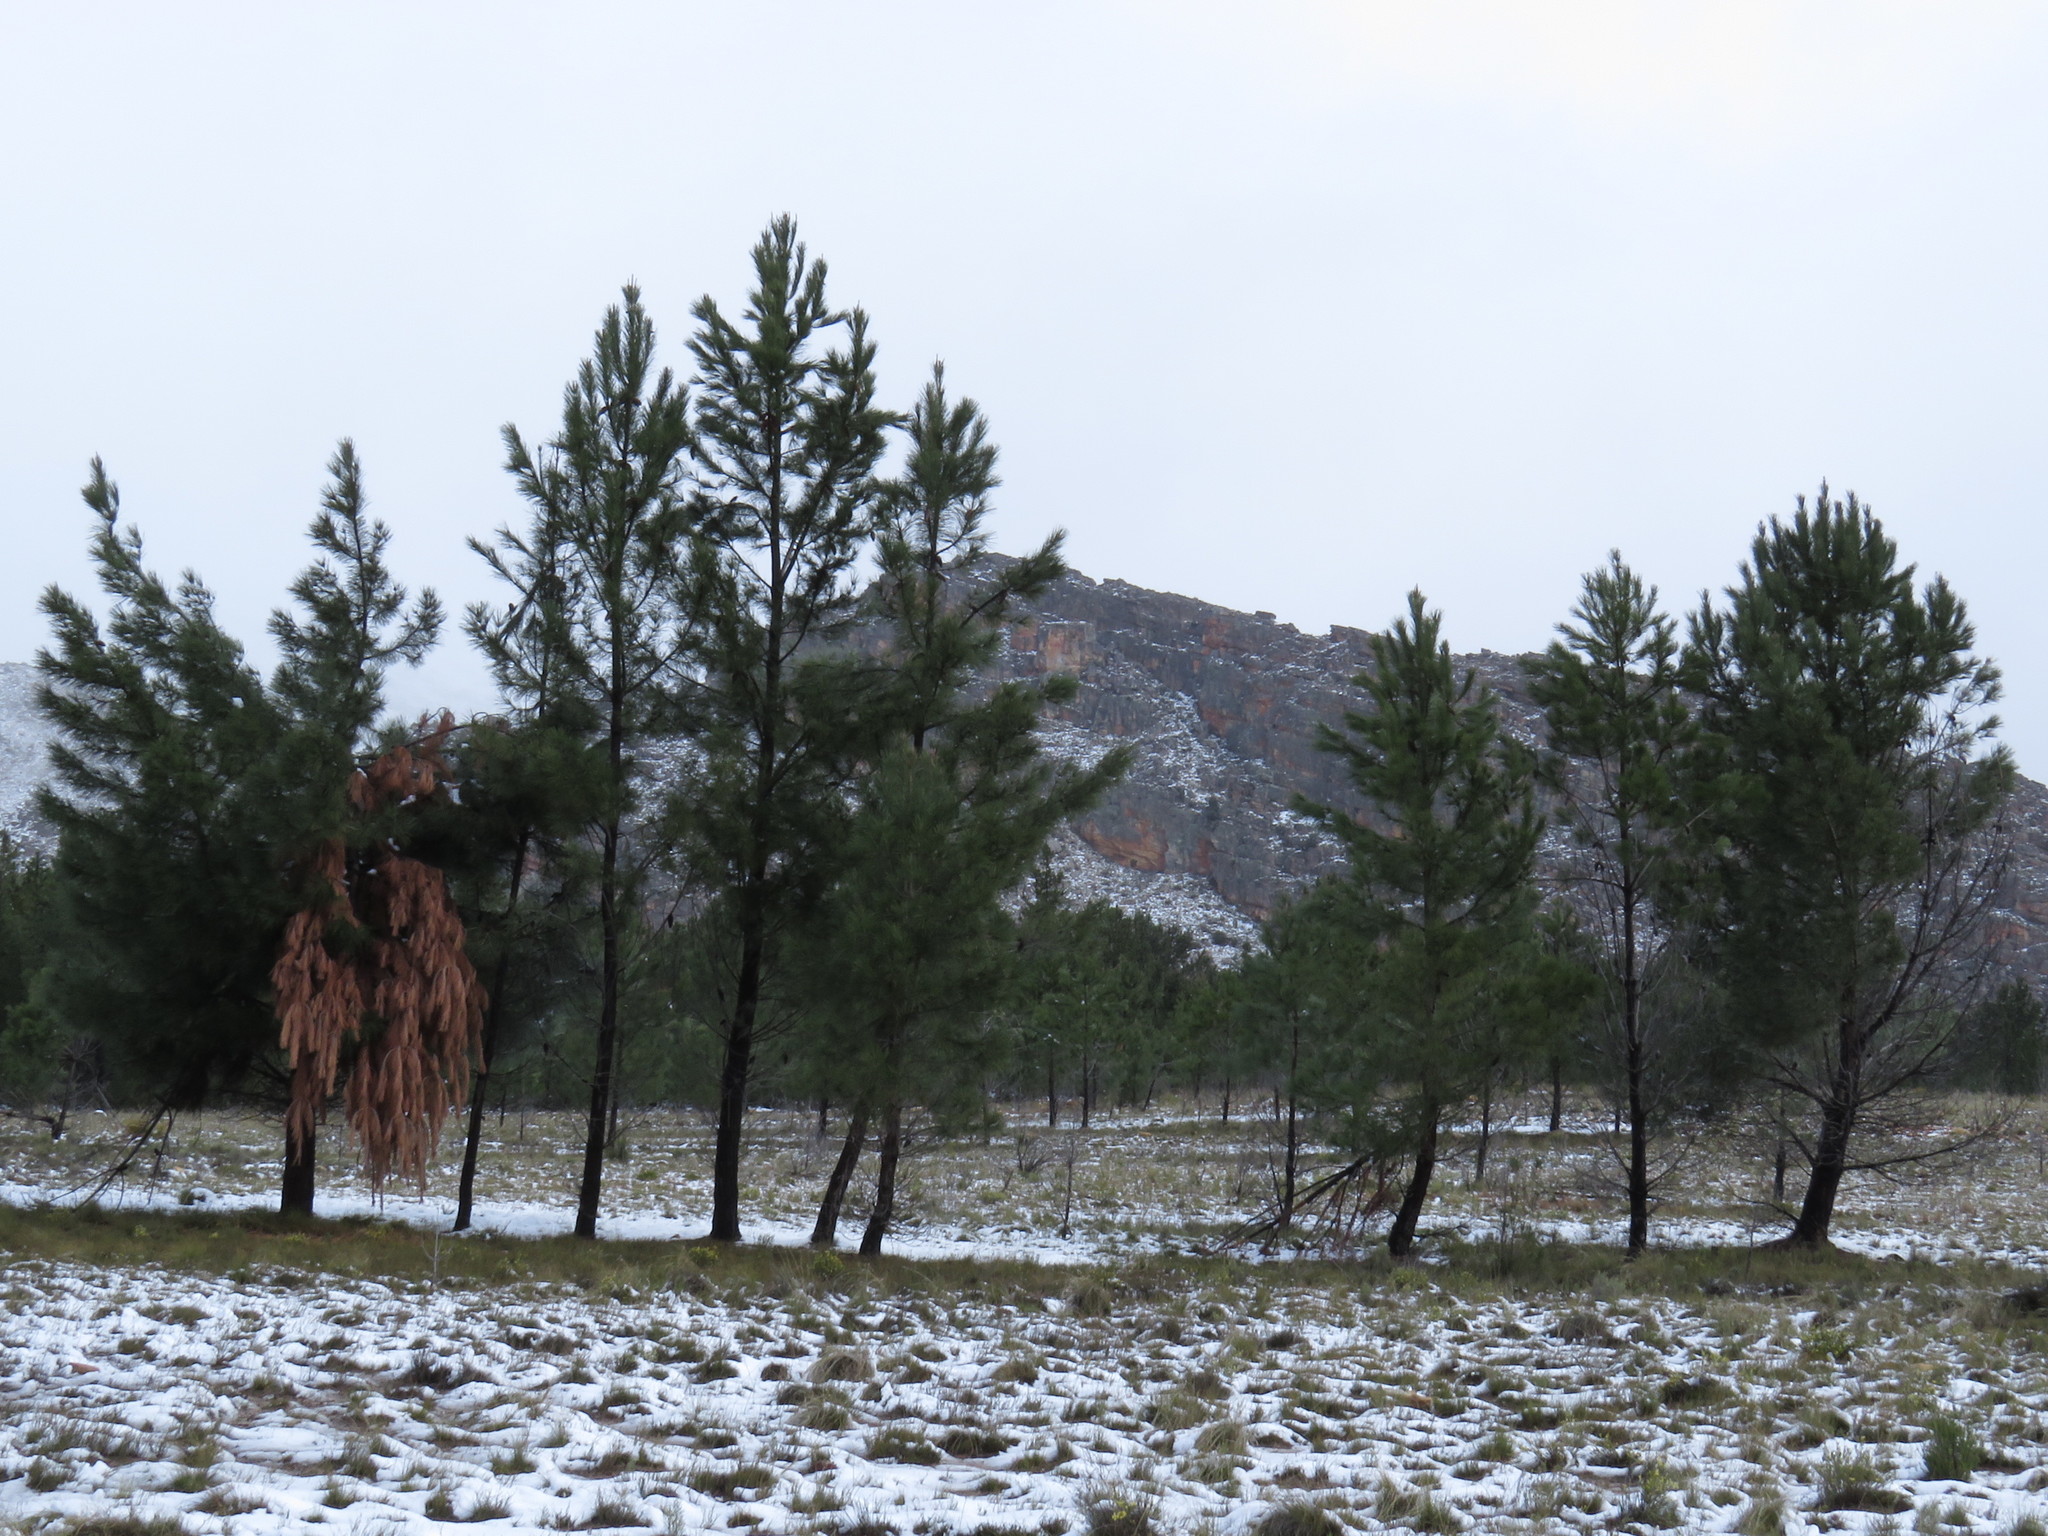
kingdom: Plantae
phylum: Tracheophyta
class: Pinopsida
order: Pinales
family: Pinaceae
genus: Pinus
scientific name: Pinus halepensis
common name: Aleppo pine
